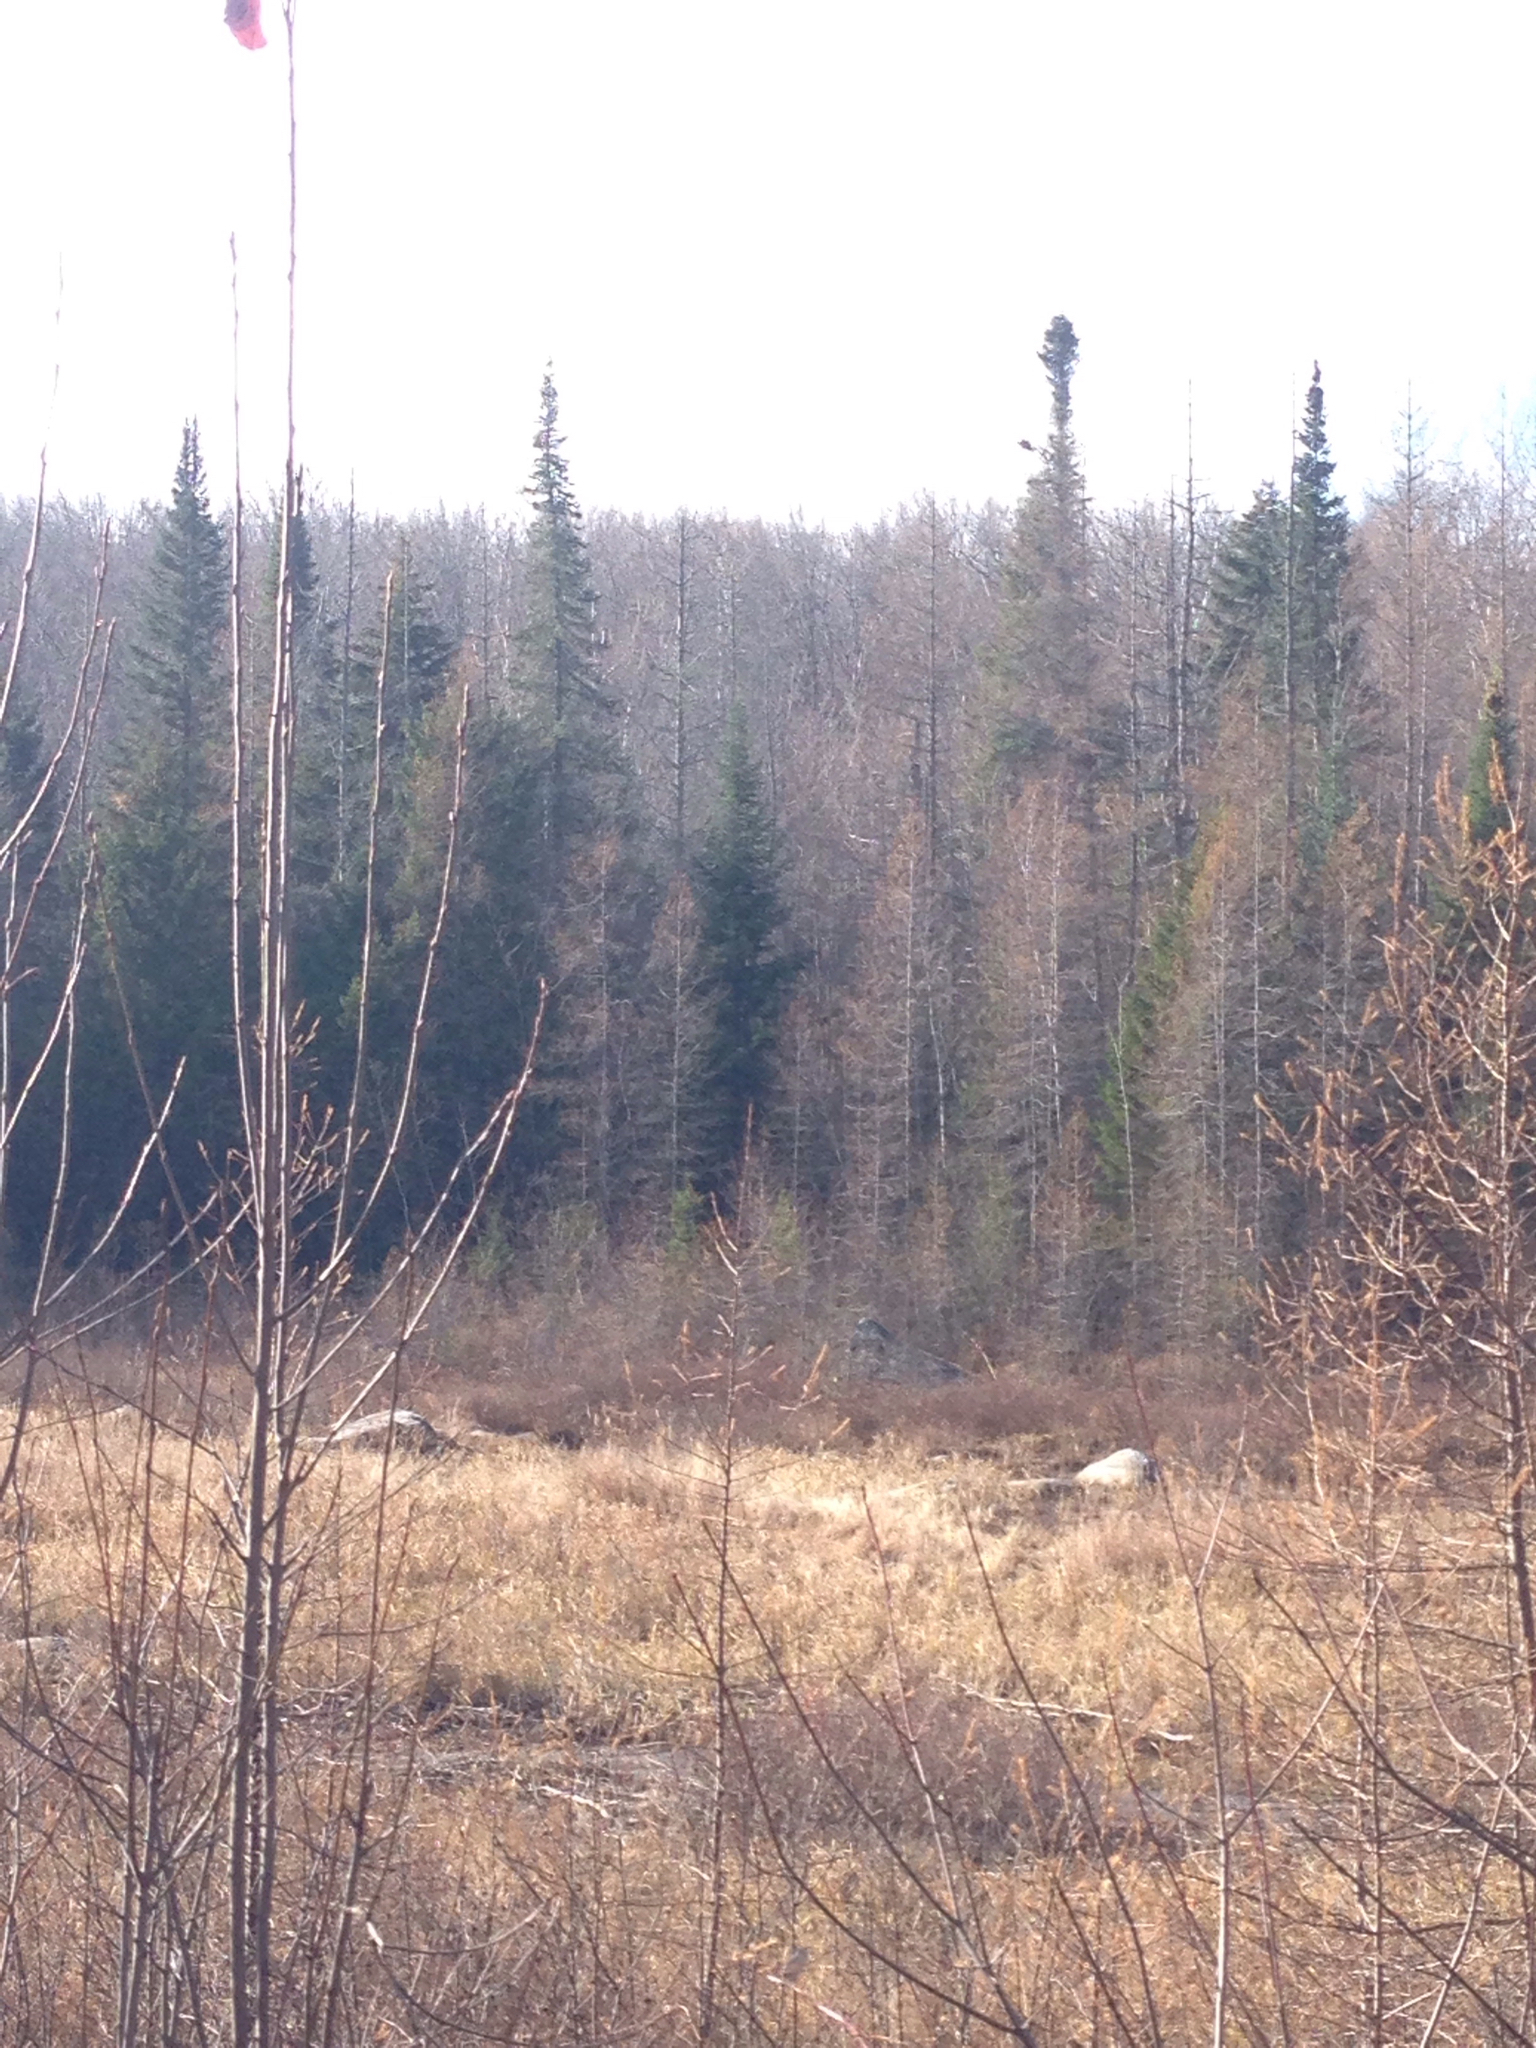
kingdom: Plantae
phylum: Tracheophyta
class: Pinopsida
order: Pinales
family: Pinaceae
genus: Abies
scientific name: Abies balsamea
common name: Balsam fir
